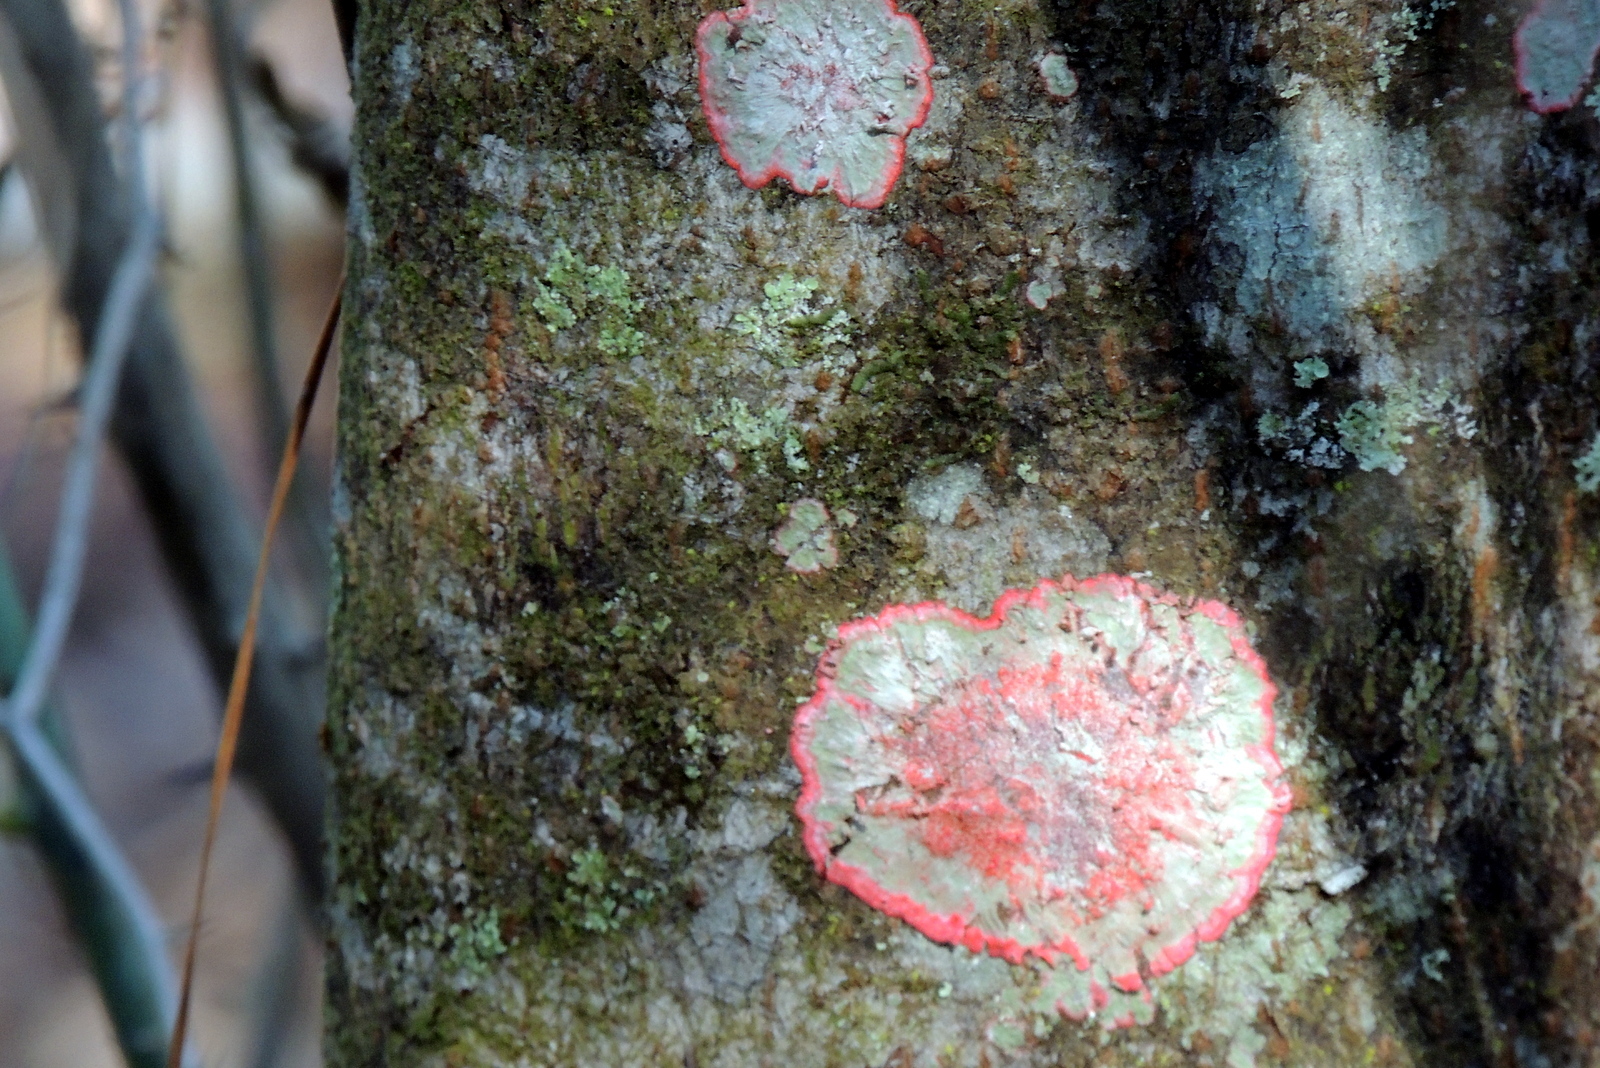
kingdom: Fungi
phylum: Ascomycota
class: Arthoniomycetes
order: Arthoniales
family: Arthoniaceae
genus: Herpothallon
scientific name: Herpothallon rubrocinctum
